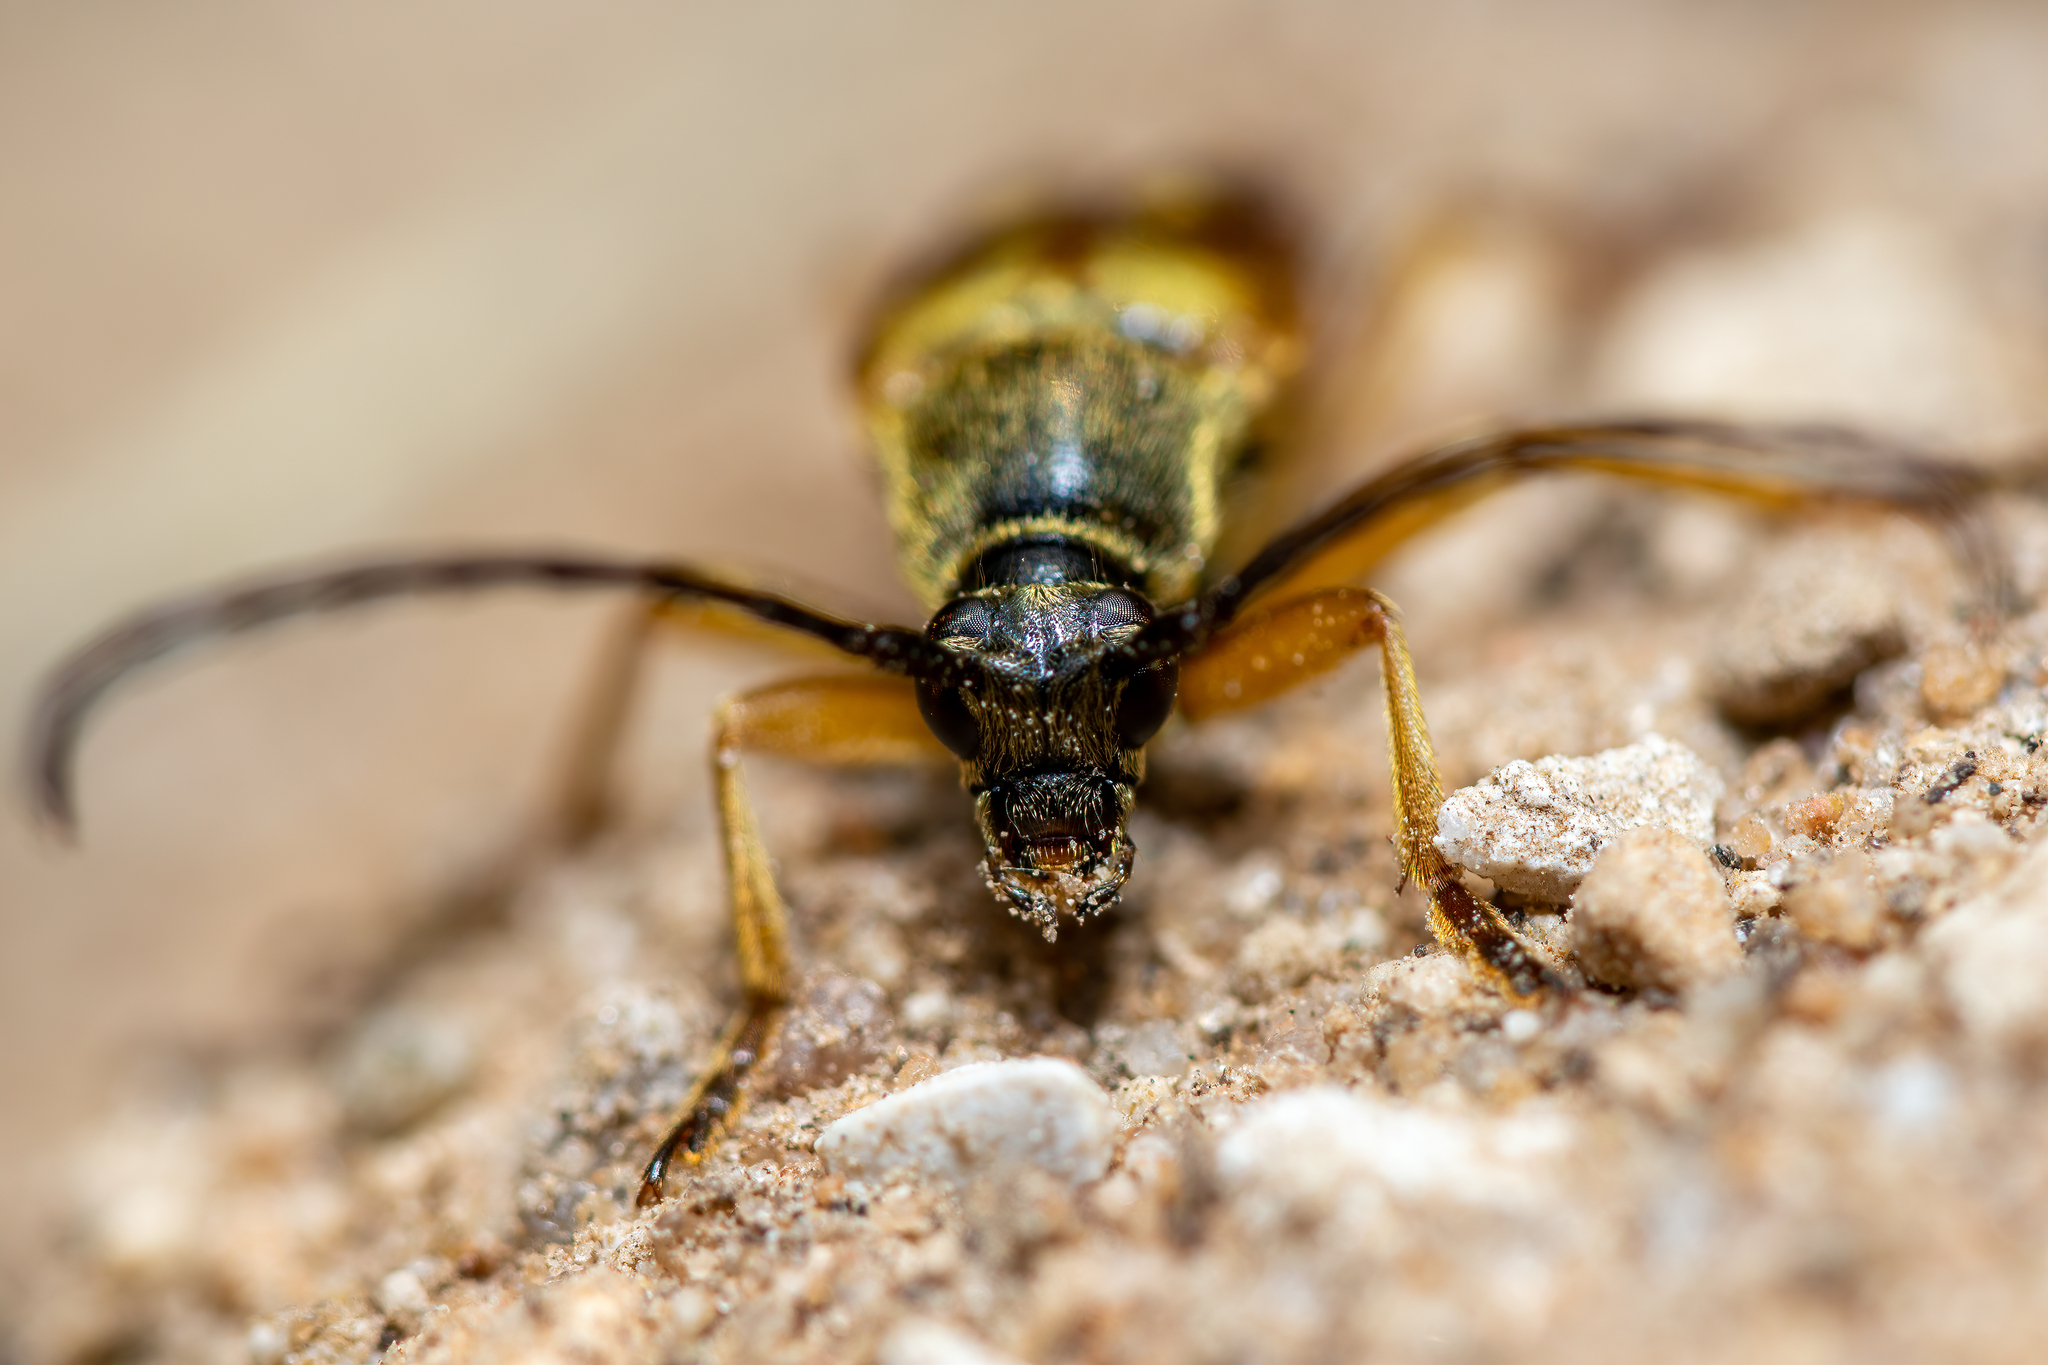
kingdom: Animalia
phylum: Arthropoda
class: Insecta
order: Coleoptera
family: Cerambycidae
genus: Typocerus
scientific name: Typocerus velutinus
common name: Banded longhorn beetle
